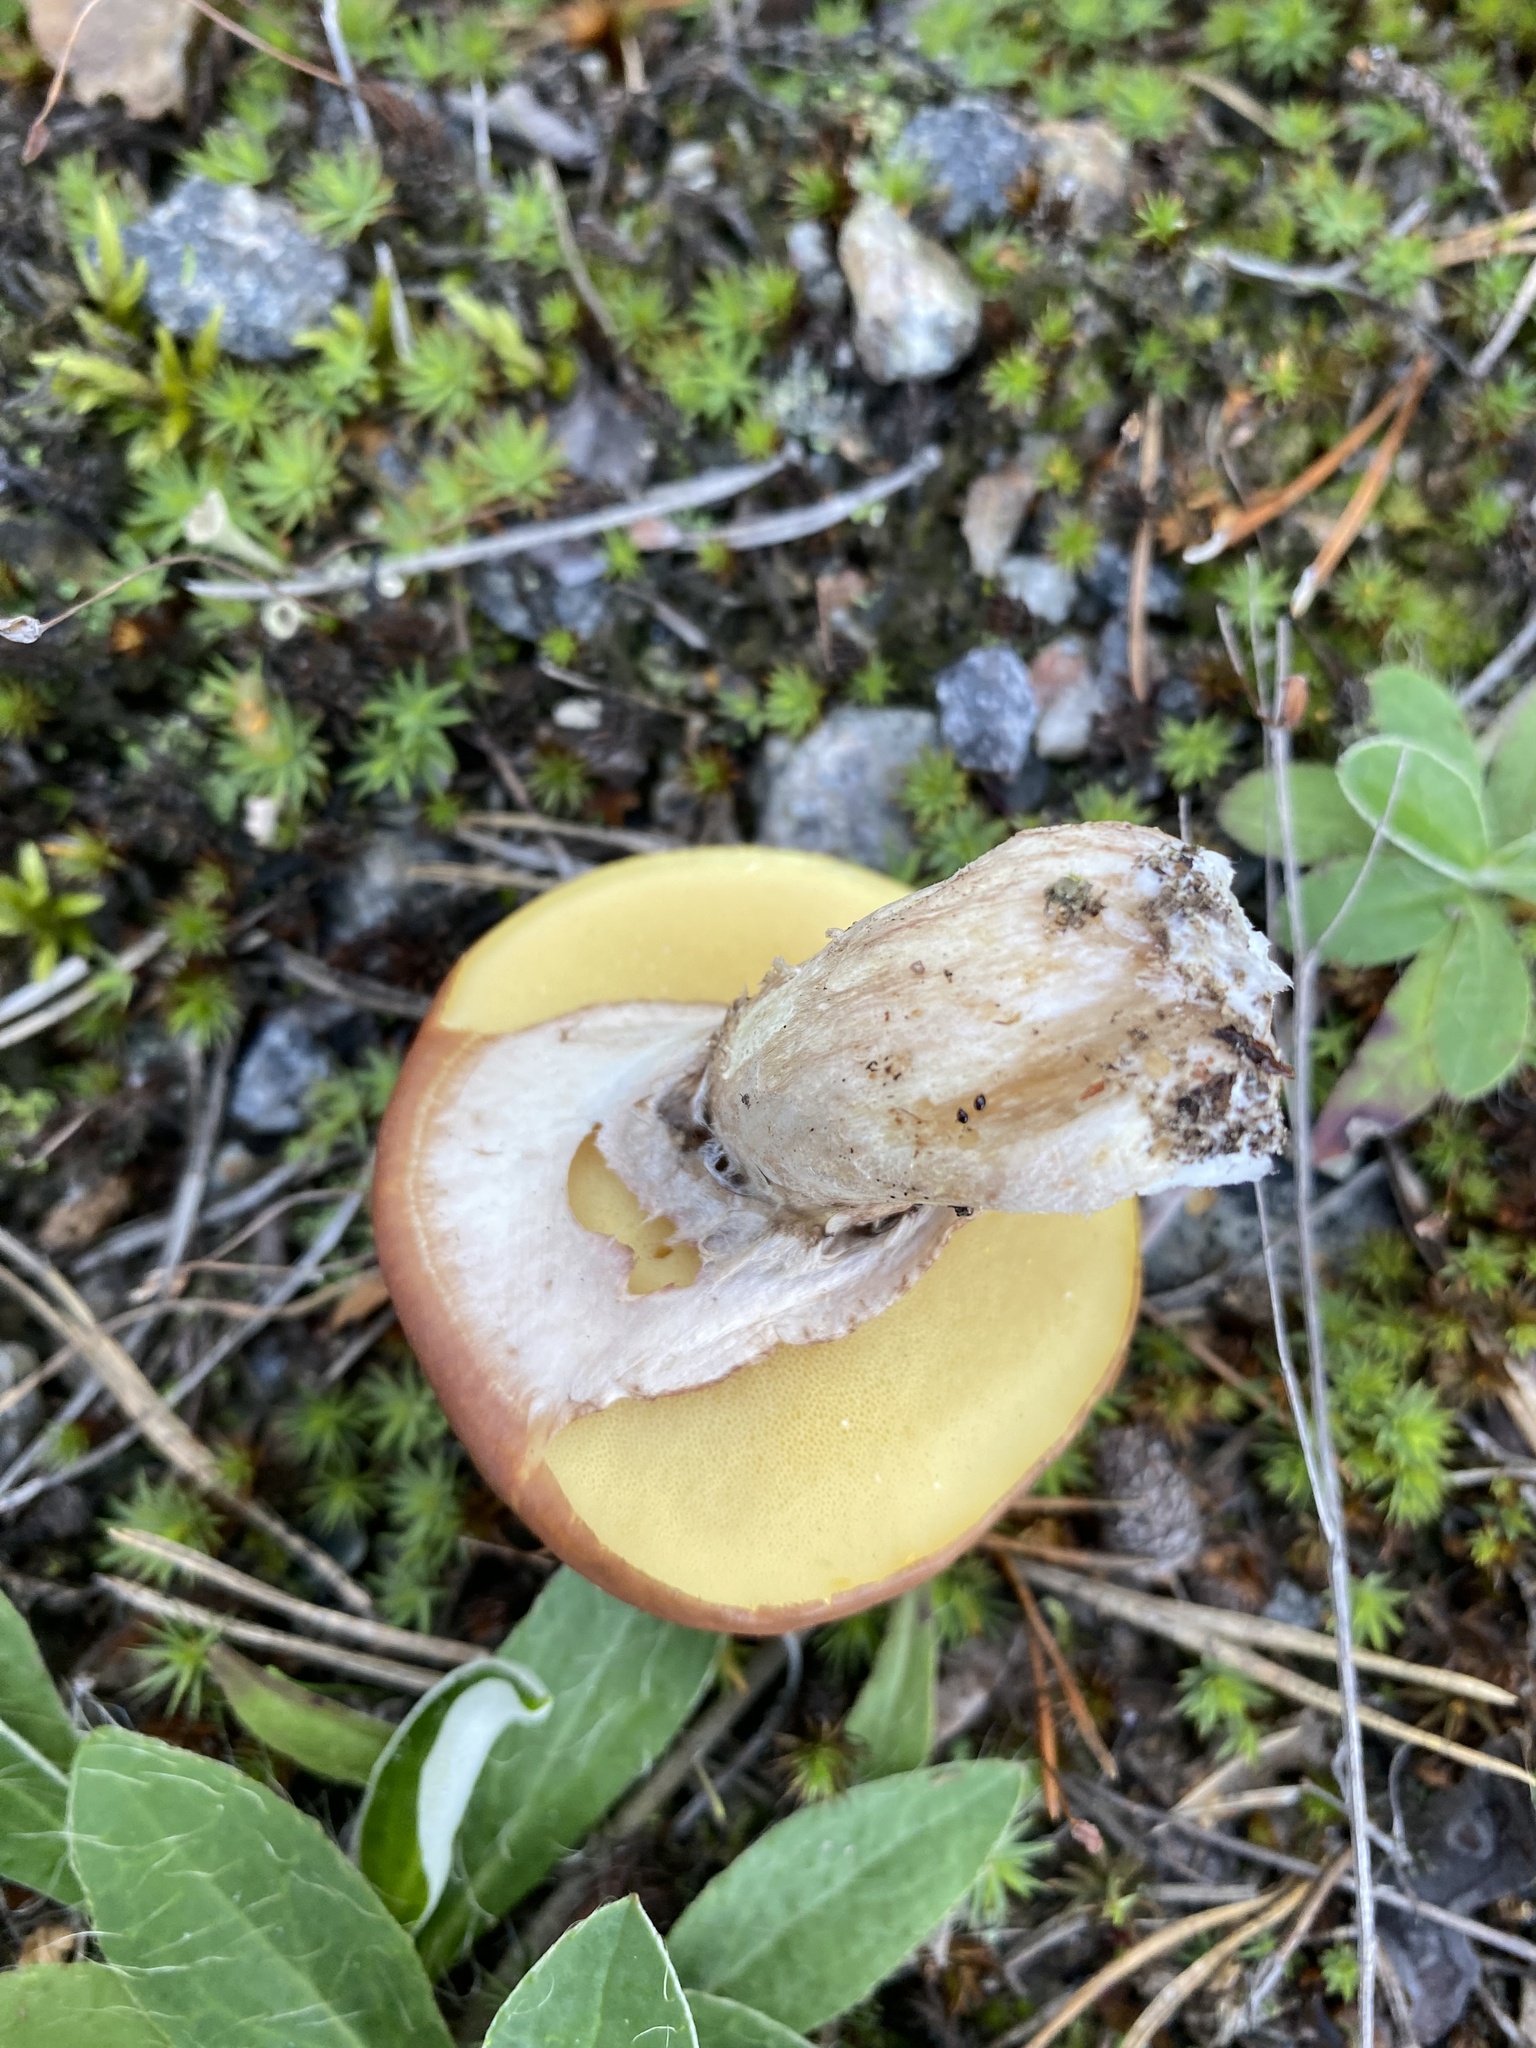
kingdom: Fungi
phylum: Basidiomycota
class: Agaricomycetes
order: Boletales
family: Suillaceae
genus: Suillus
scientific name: Suillus luteus
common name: Slippery jack
